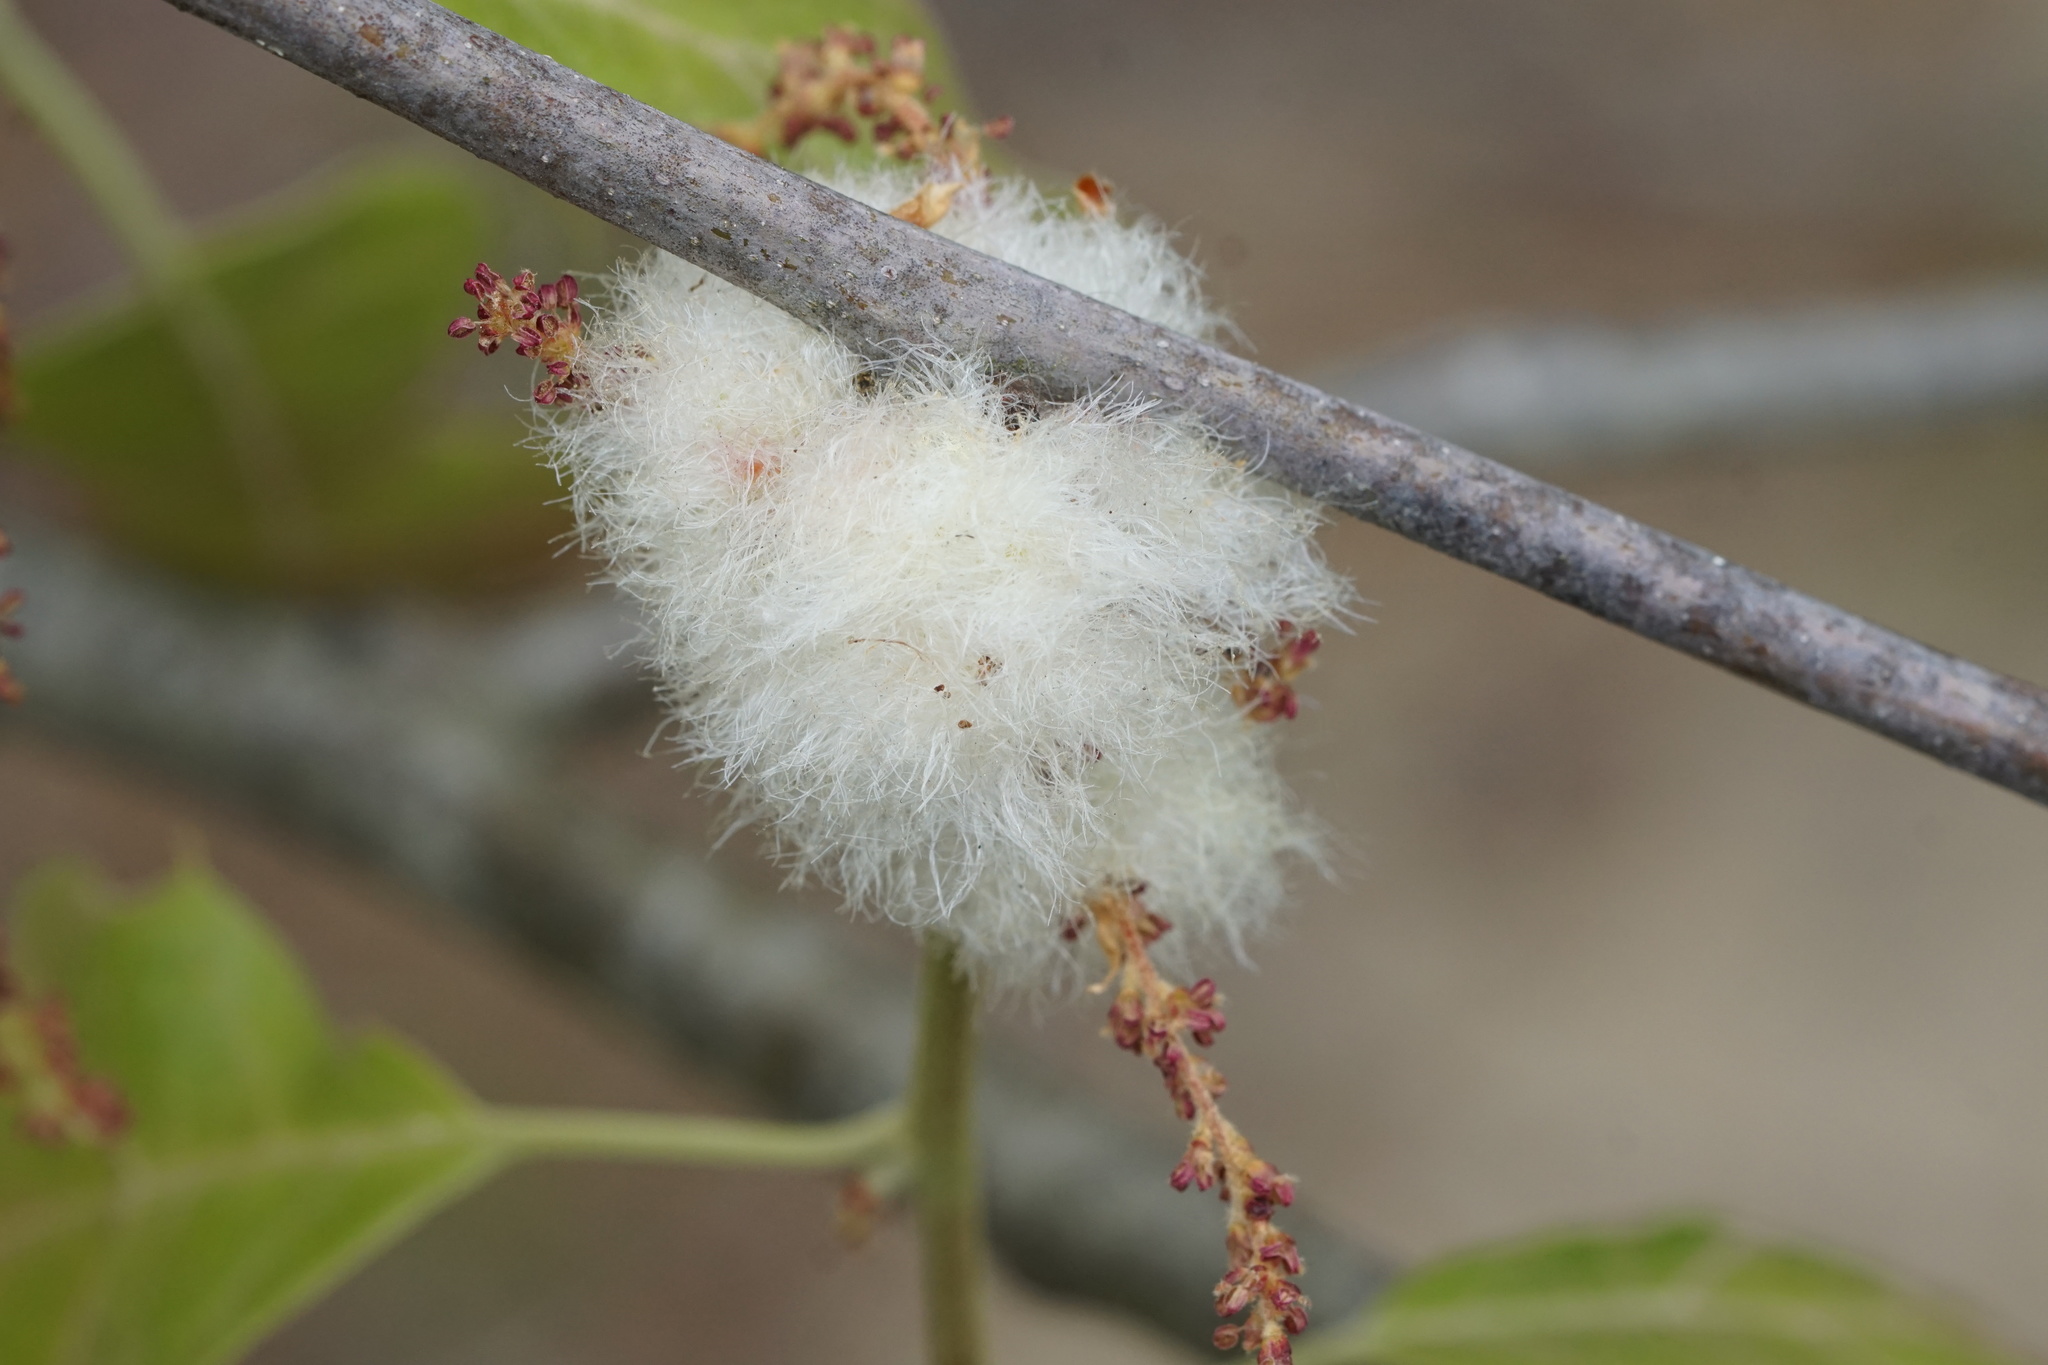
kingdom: Animalia
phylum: Arthropoda
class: Insecta
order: Hymenoptera
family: Cynipidae
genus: Callirhytis
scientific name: Callirhytis
